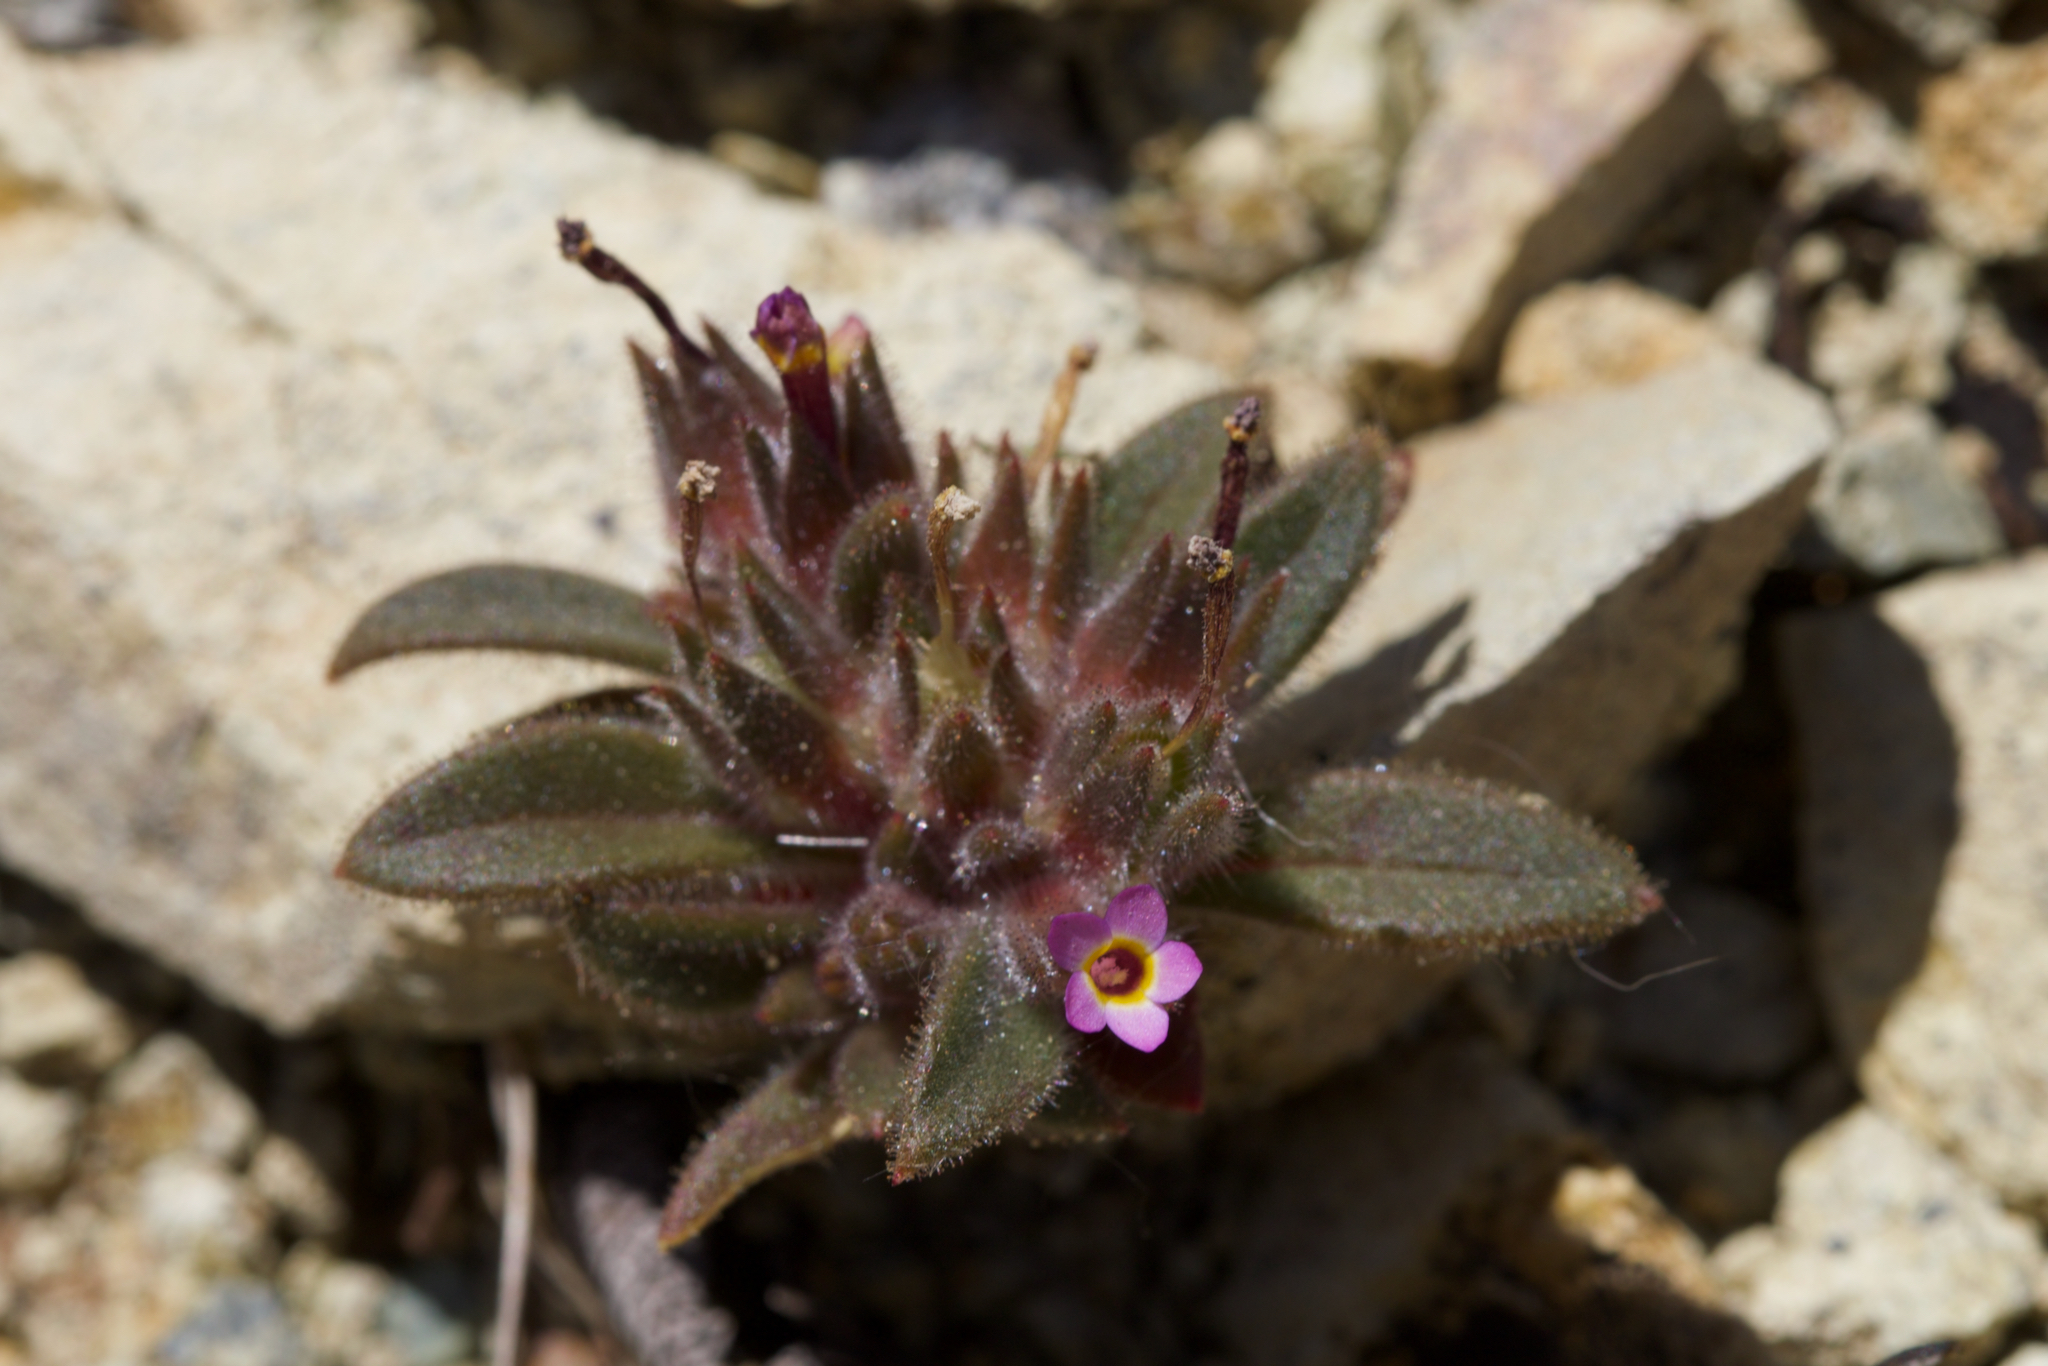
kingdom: Plantae
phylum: Tracheophyta
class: Magnoliopsida
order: Ericales
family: Polemoniaceae
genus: Collomia
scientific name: Collomia diversifolia
